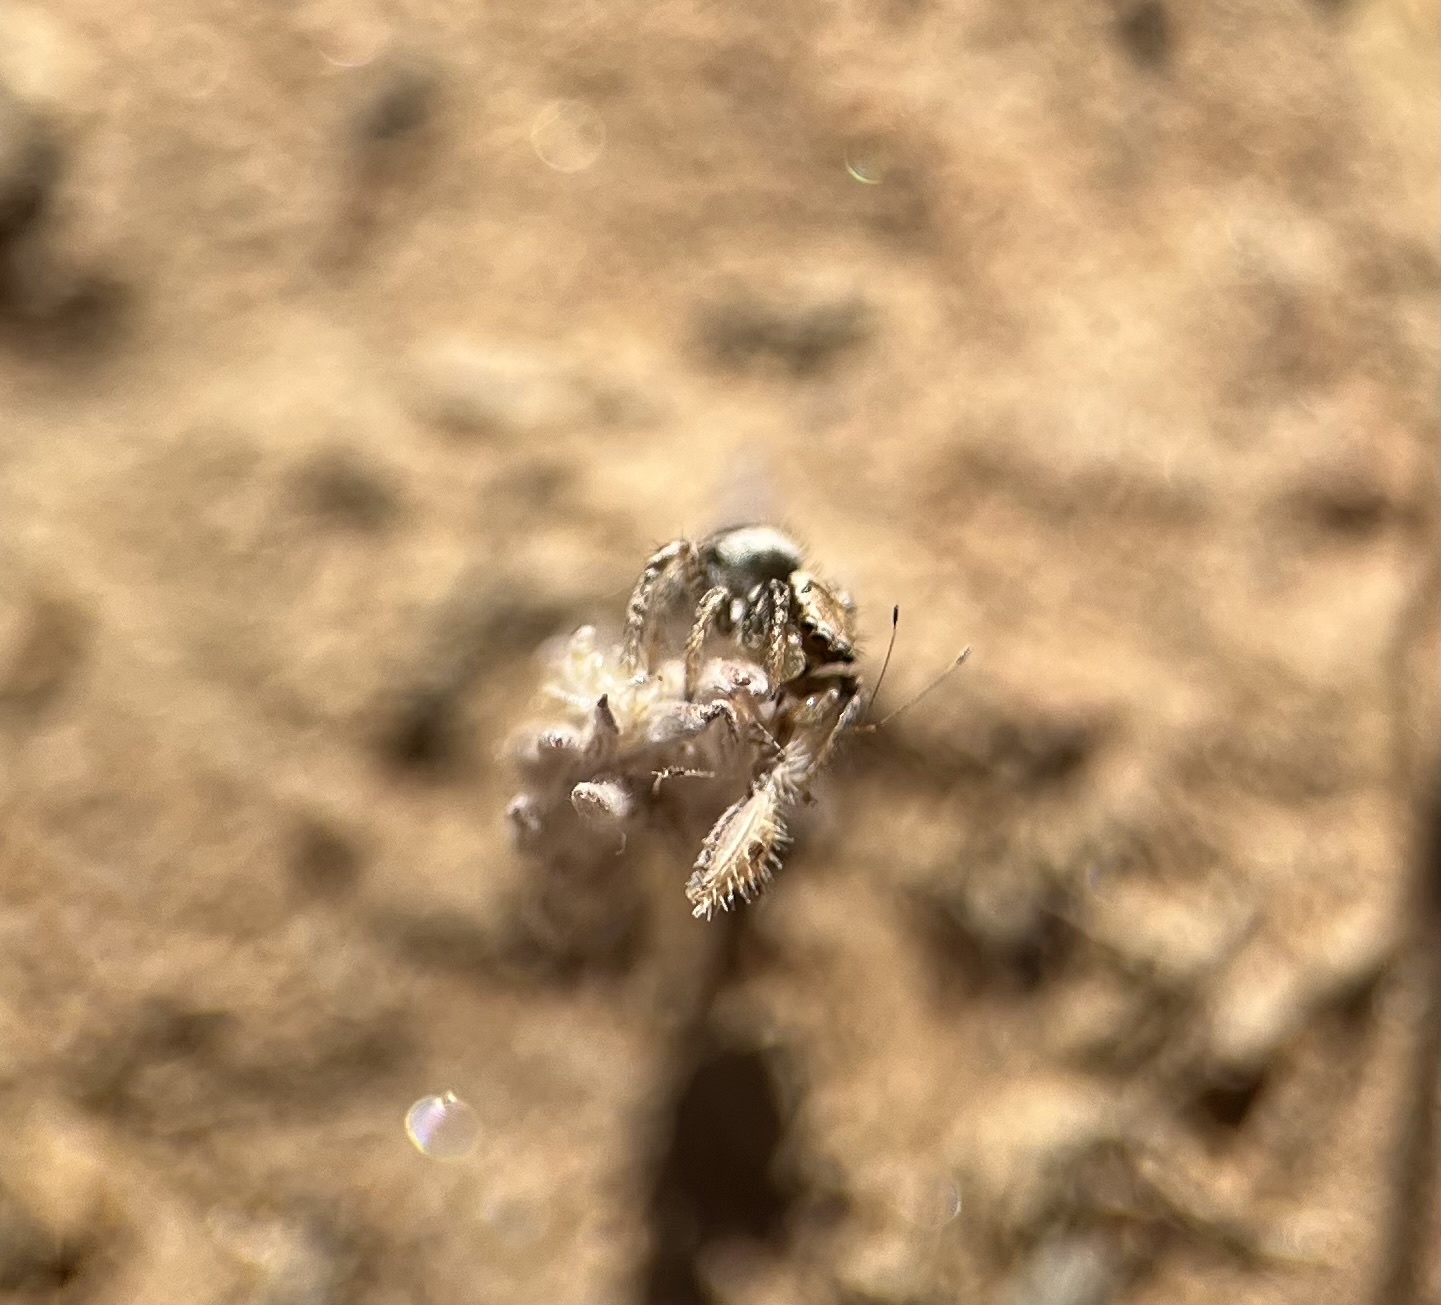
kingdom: Animalia
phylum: Arthropoda
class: Arachnida
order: Araneae
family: Salticidae
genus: Habronattus
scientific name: Habronattus californicus
